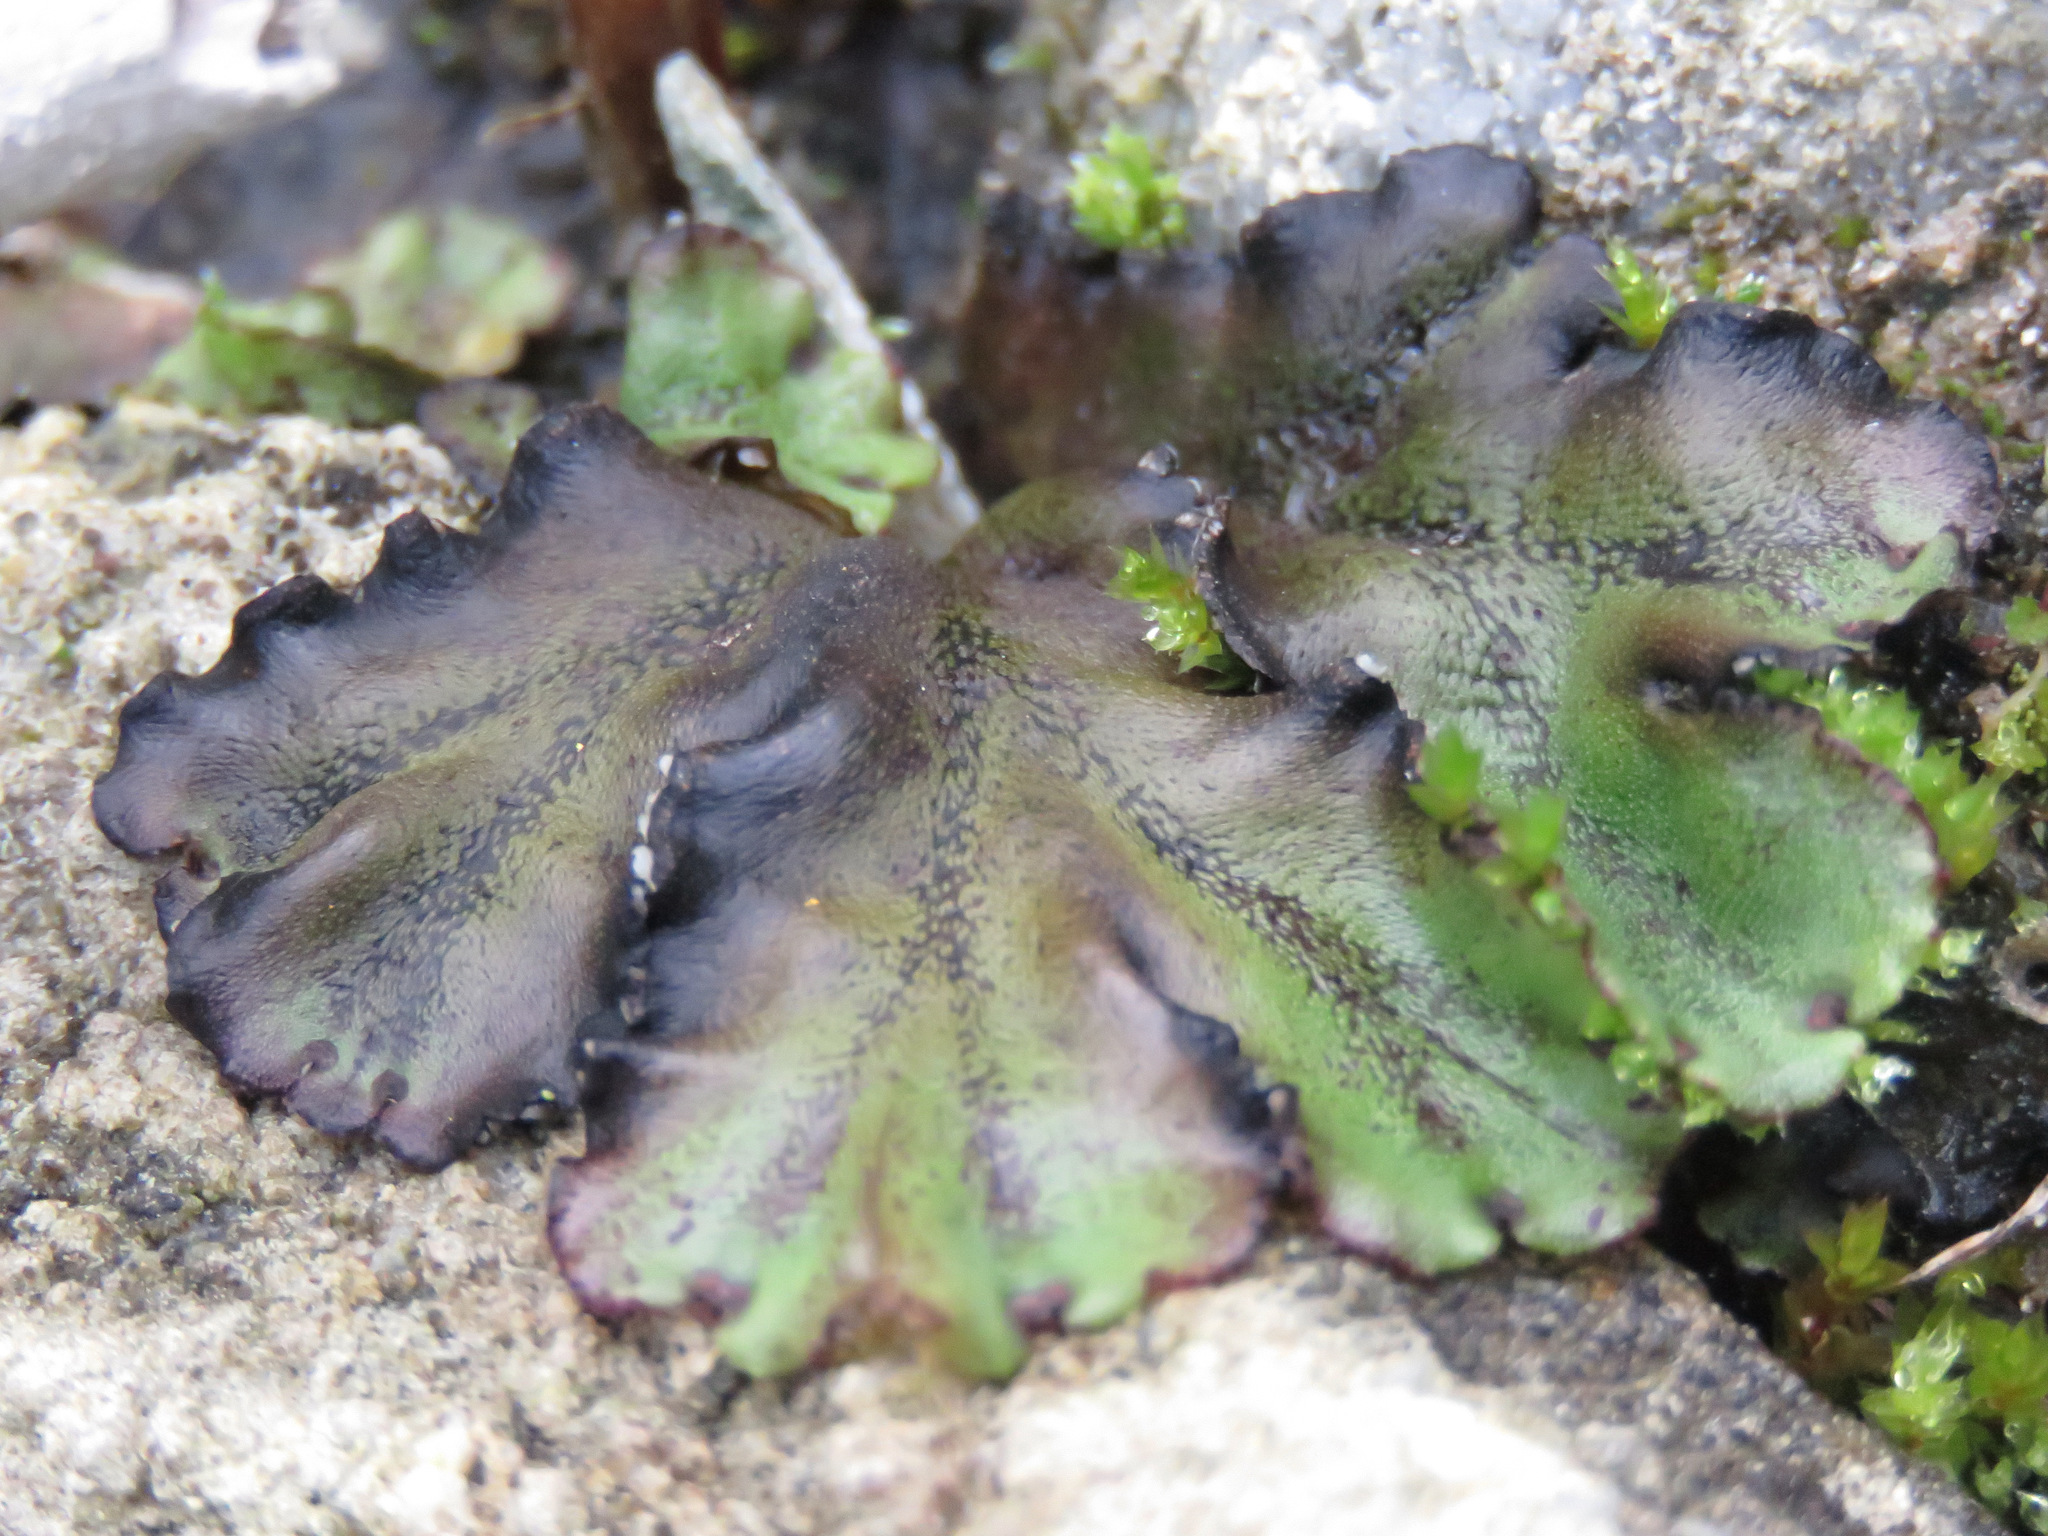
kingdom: Plantae
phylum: Marchantiophyta
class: Marchantiopsida
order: Marchantiales
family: Marchantiaceae
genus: Marchantia
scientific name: Marchantia polymorpha
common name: Common liverwort
